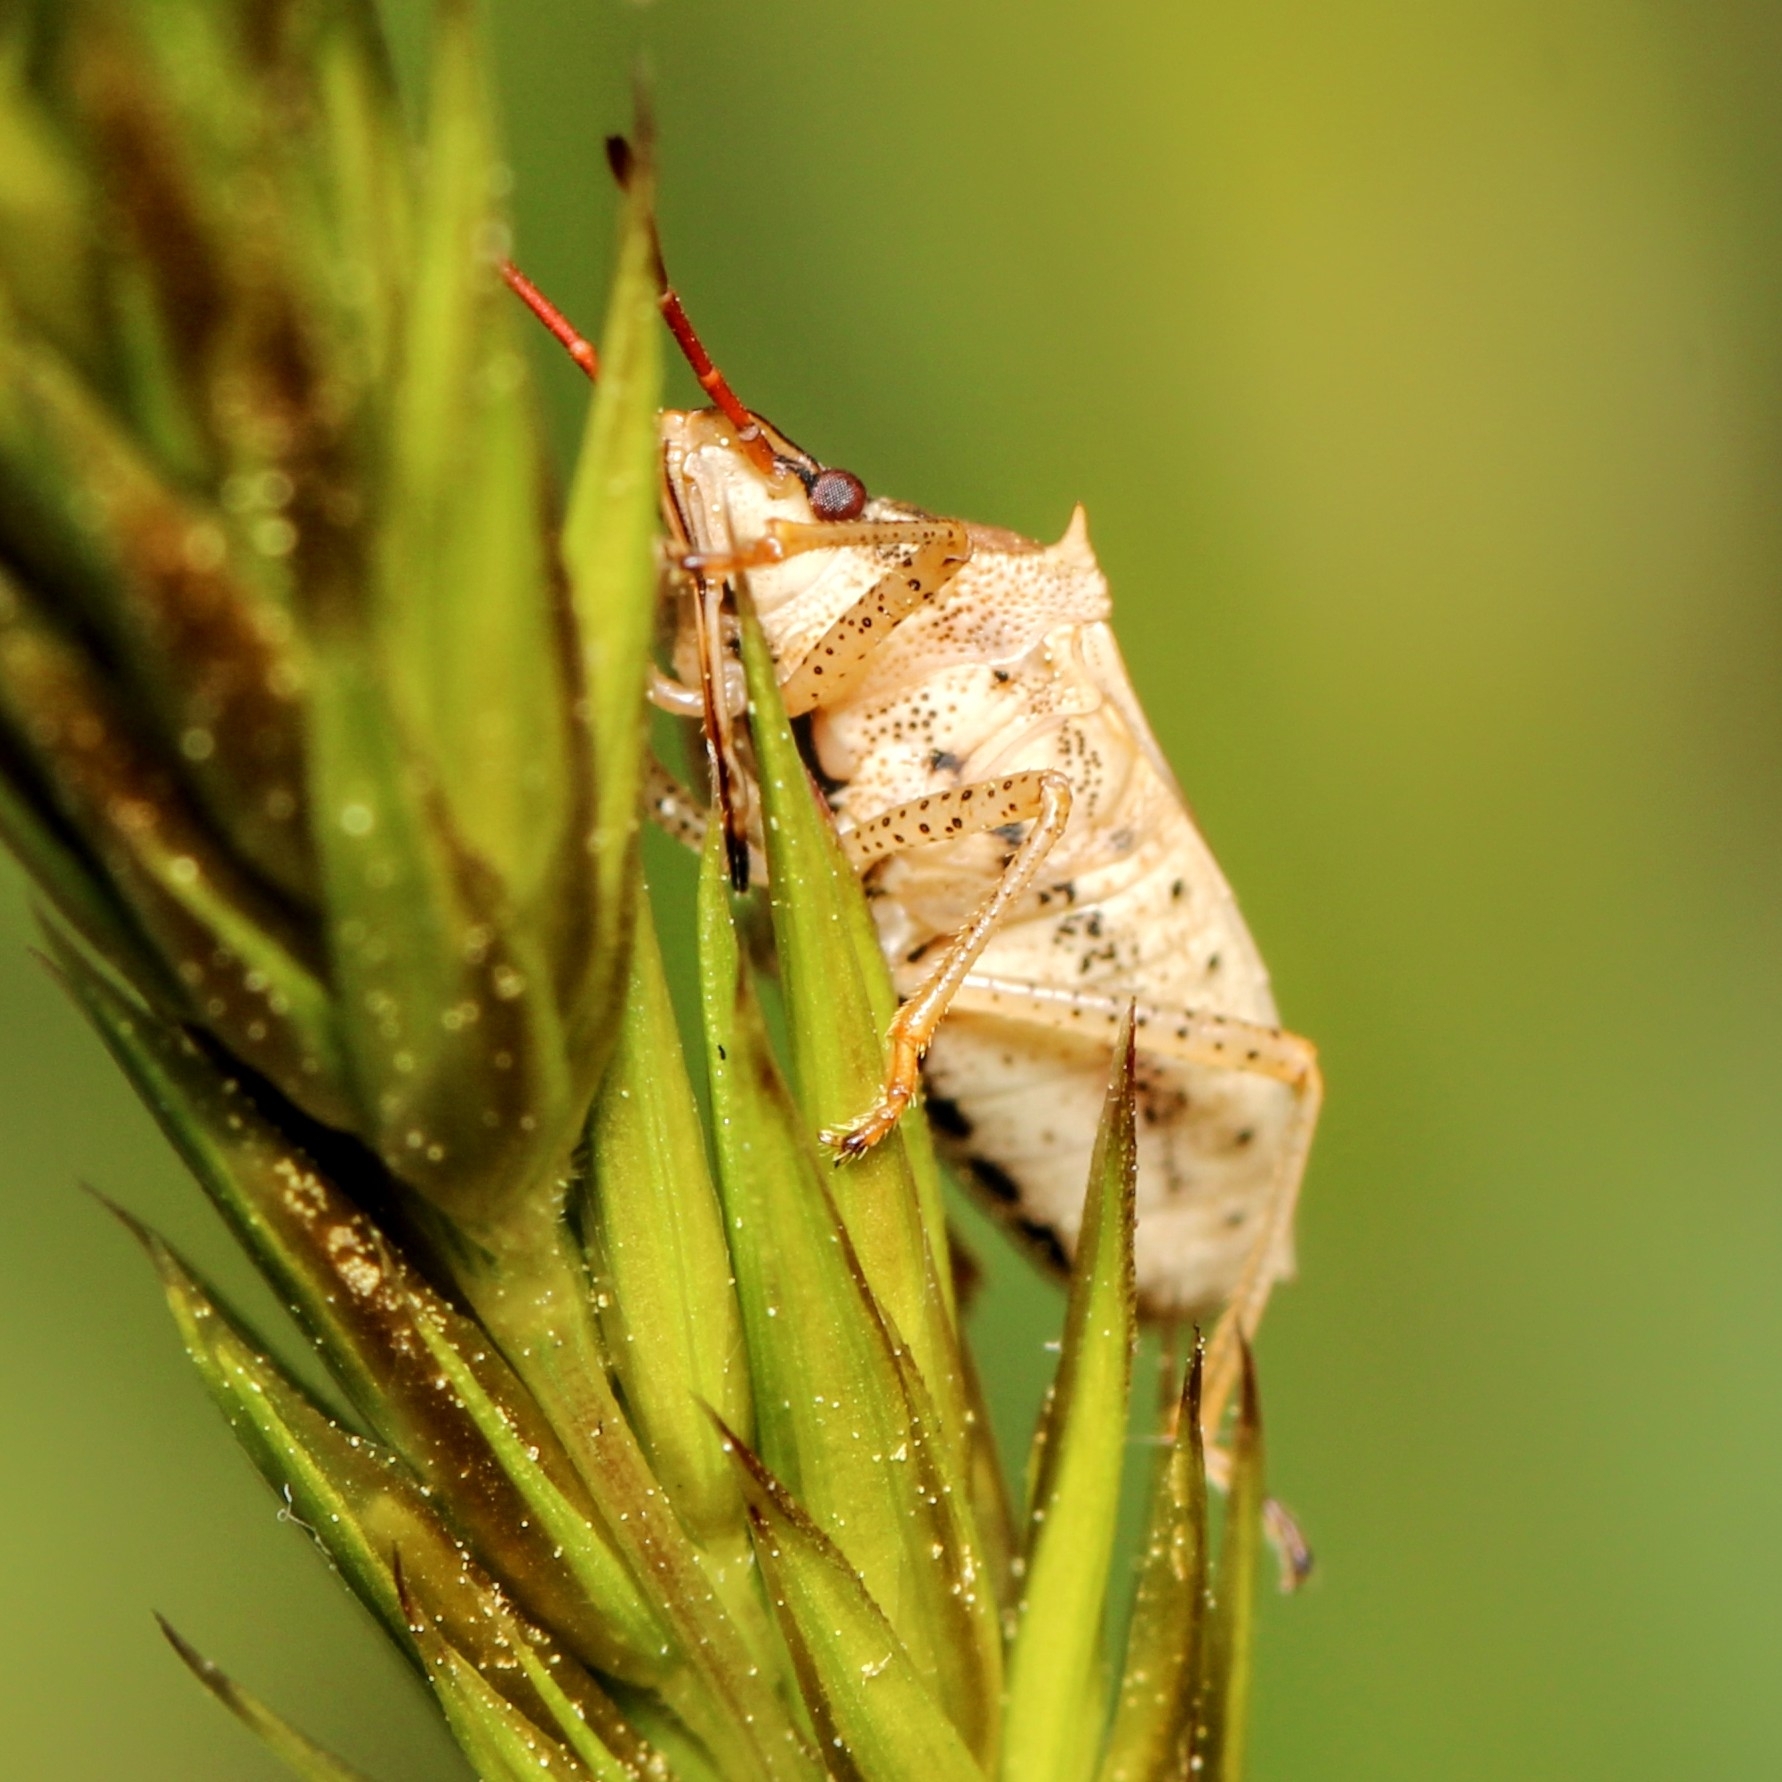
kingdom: Animalia
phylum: Arthropoda
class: Insecta
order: Hemiptera
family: Pentatomidae
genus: Oebalus
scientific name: Oebalus pugnax
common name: Rice stink bug
